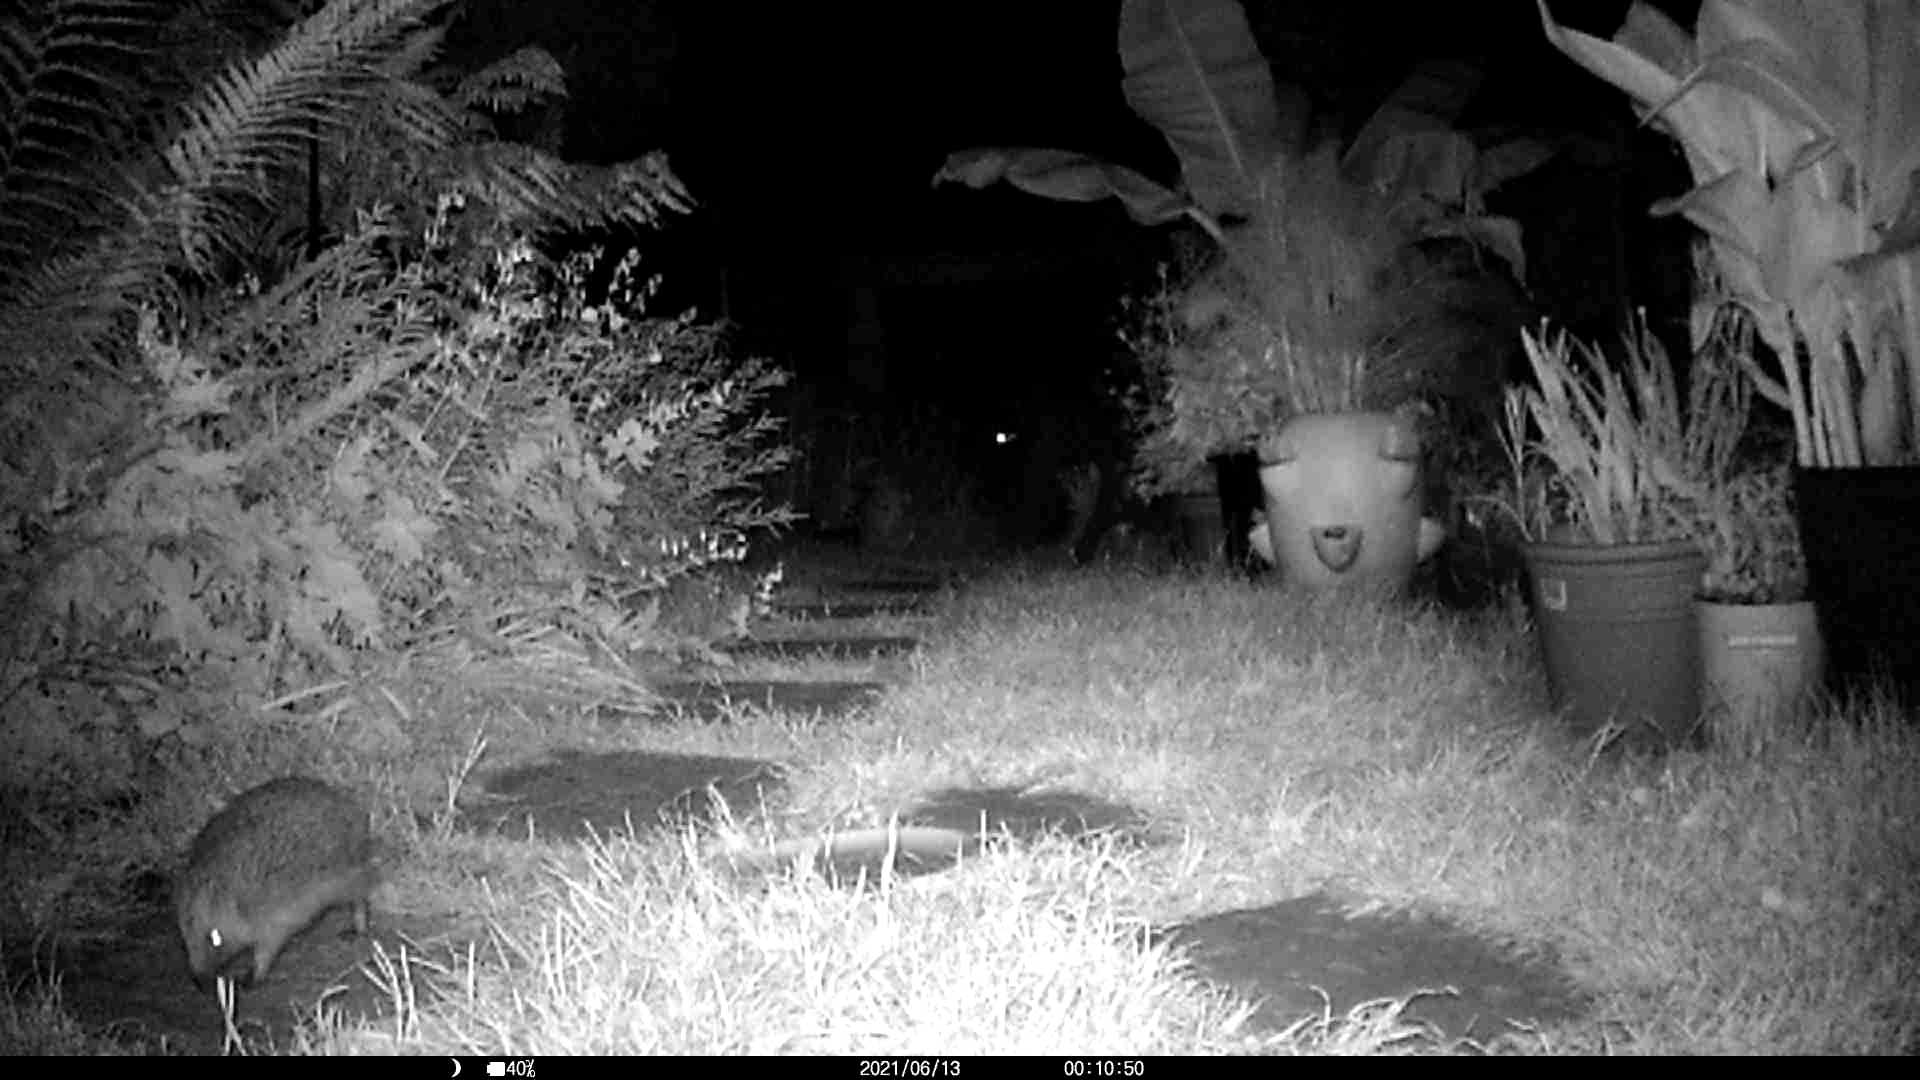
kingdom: Animalia
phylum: Chordata
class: Mammalia
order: Erinaceomorpha
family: Erinaceidae
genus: Erinaceus
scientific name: Erinaceus europaeus
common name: West european hedgehog
